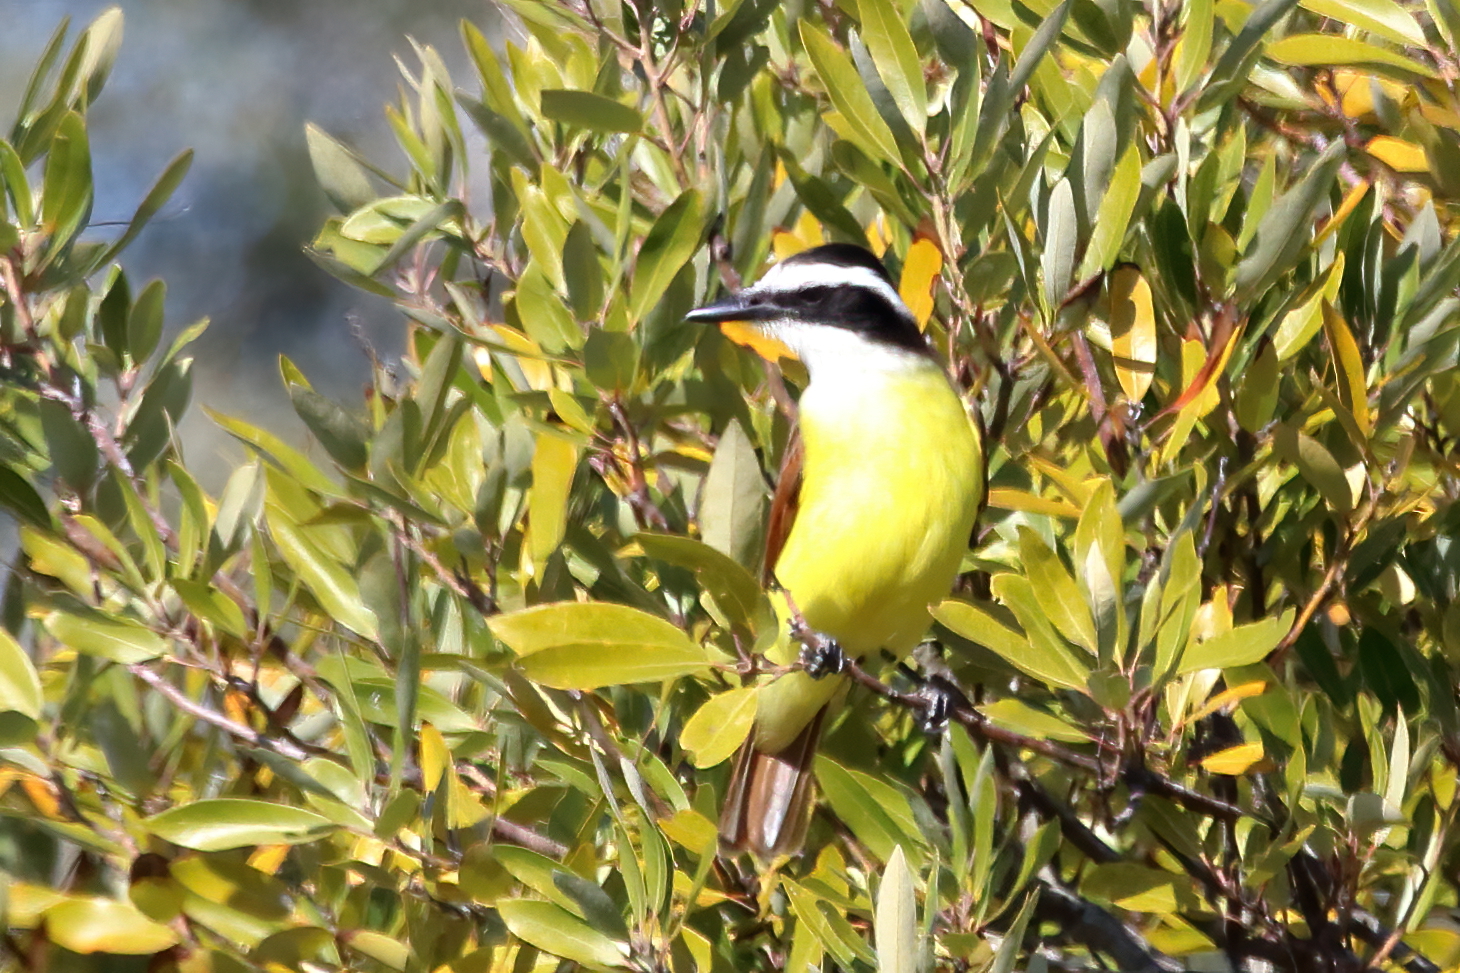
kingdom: Animalia
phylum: Chordata
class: Aves
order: Passeriformes
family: Tyrannidae
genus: Pitangus
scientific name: Pitangus sulphuratus
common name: Great kiskadee
